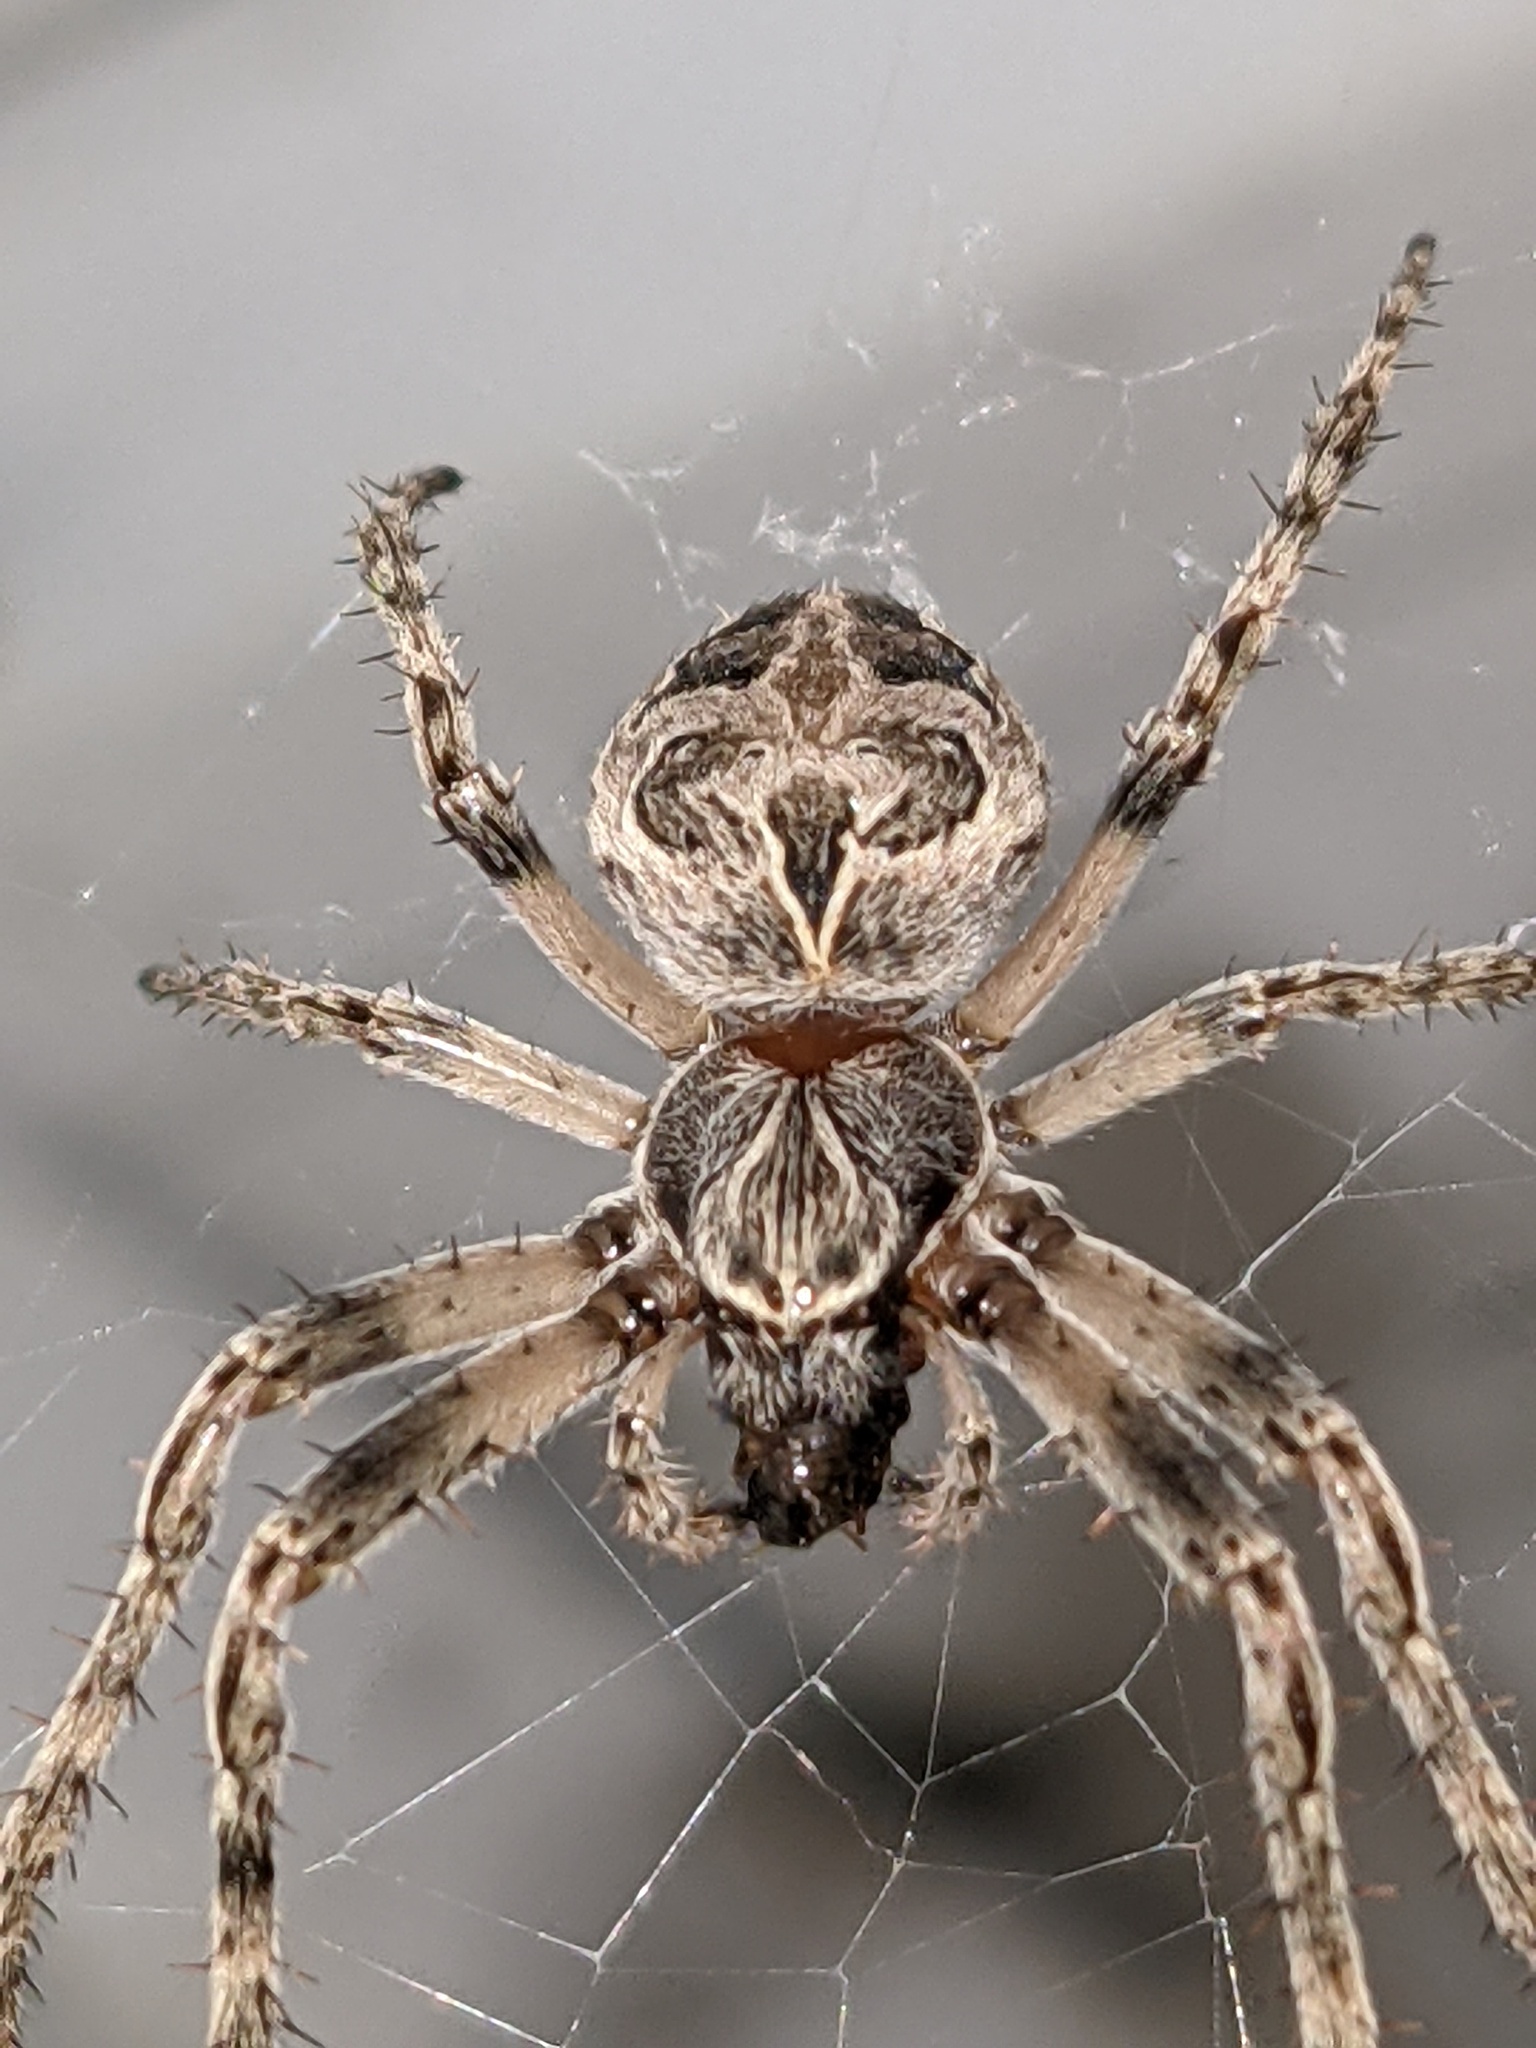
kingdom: Animalia
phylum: Arthropoda
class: Arachnida
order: Araneae
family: Araneidae
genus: Larinioides
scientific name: Larinioides sclopetarius
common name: Bridge orbweaver
